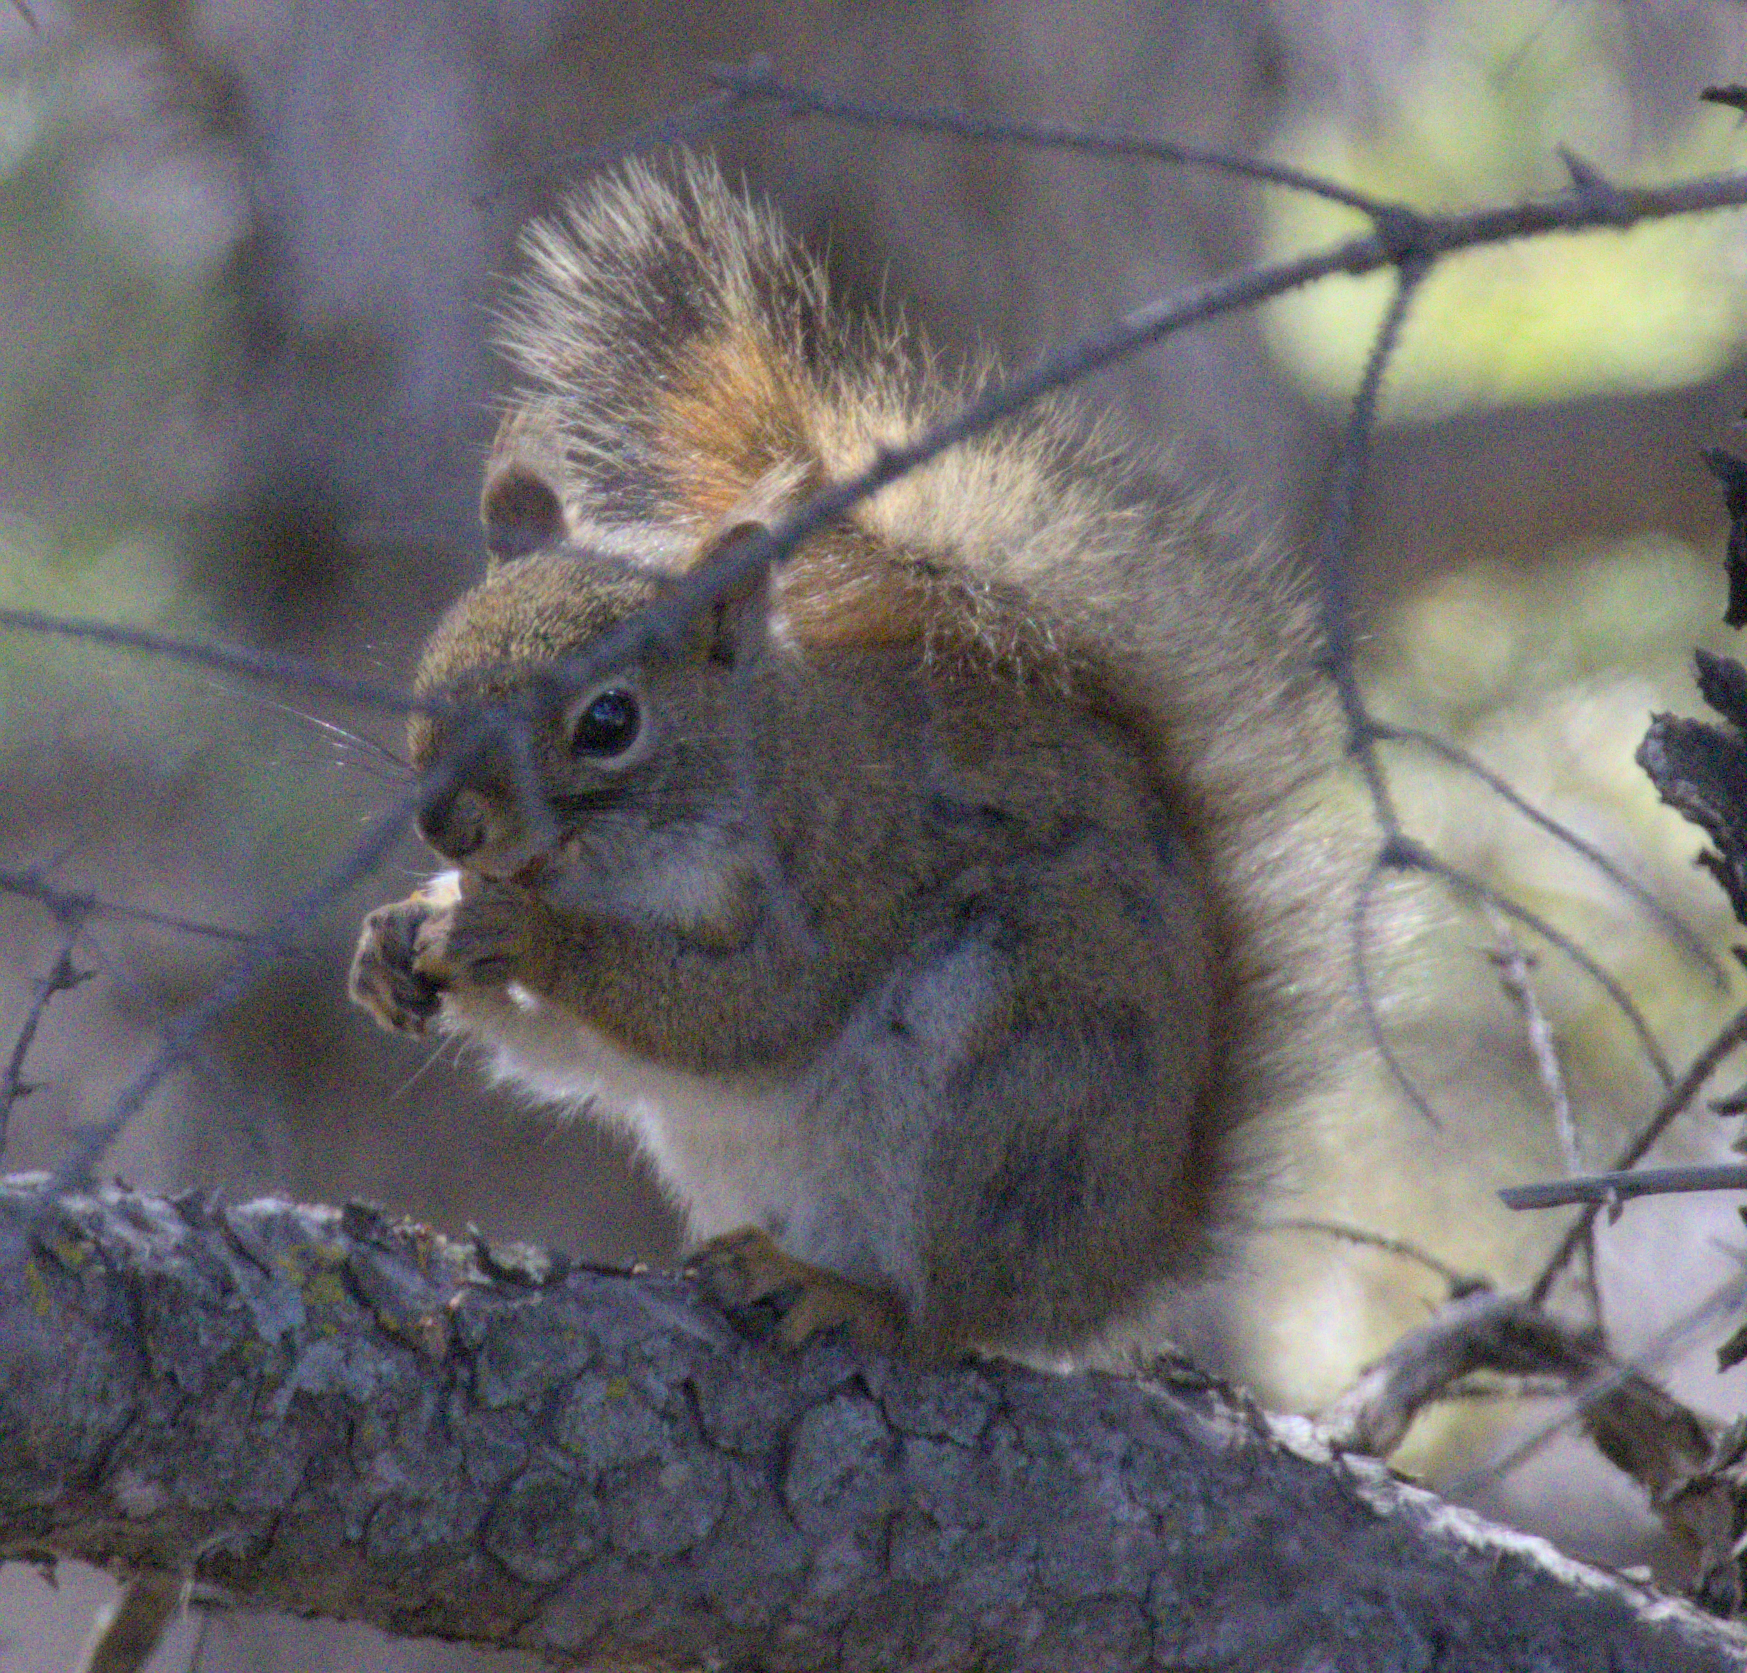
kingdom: Animalia
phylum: Chordata
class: Mammalia
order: Rodentia
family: Sciuridae
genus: Tamiasciurus
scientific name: Tamiasciurus hudsonicus
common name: Red squirrel
